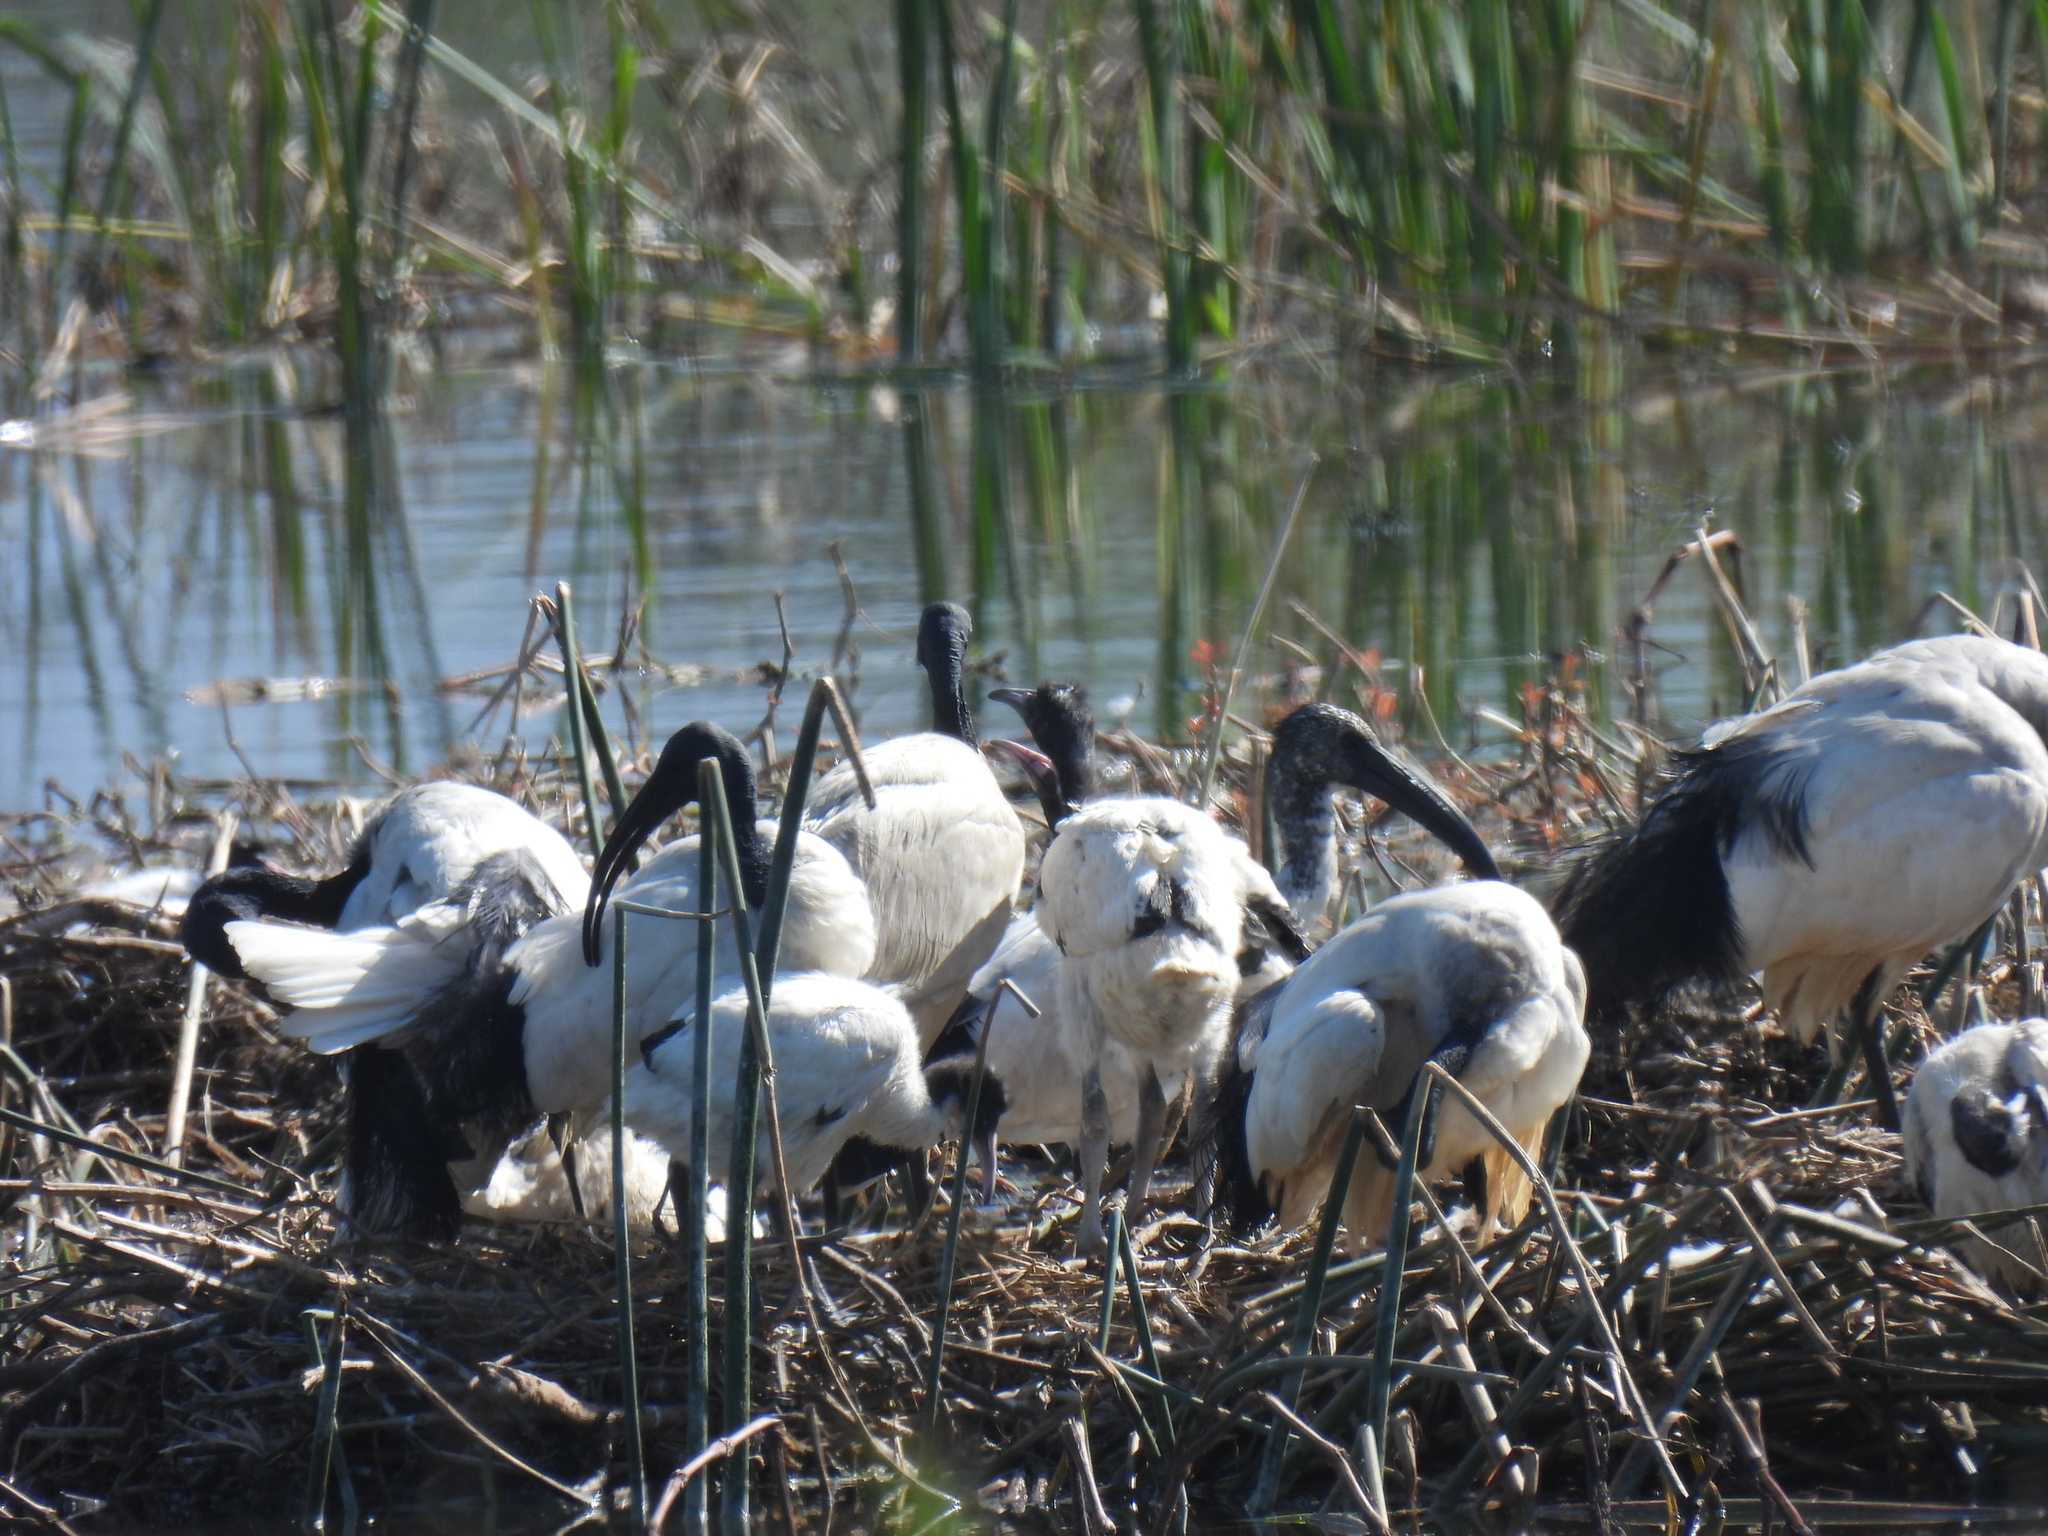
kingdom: Animalia
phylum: Chordata
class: Aves
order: Pelecaniformes
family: Threskiornithidae
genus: Threskiornis
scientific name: Threskiornis aethiopicus
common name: Sacred ibis
